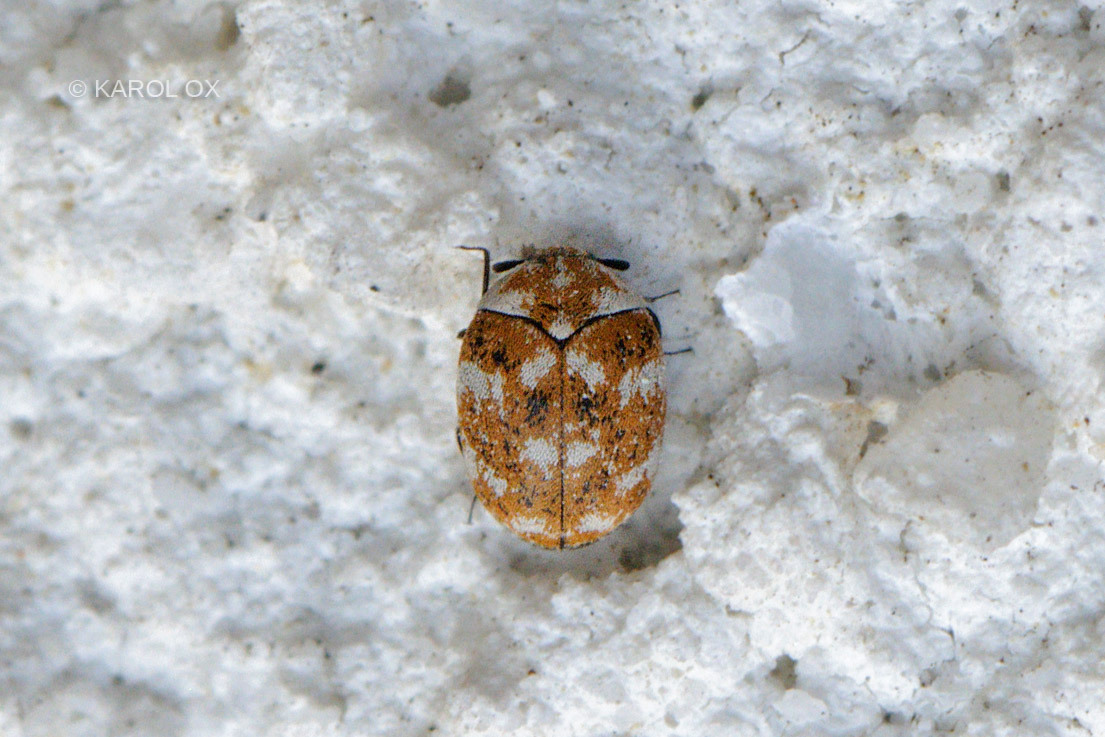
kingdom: Animalia
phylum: Arthropoda
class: Insecta
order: Coleoptera
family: Dermestidae
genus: Anthrenus
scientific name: Anthrenus verbasci
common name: Varied carpet beetle
